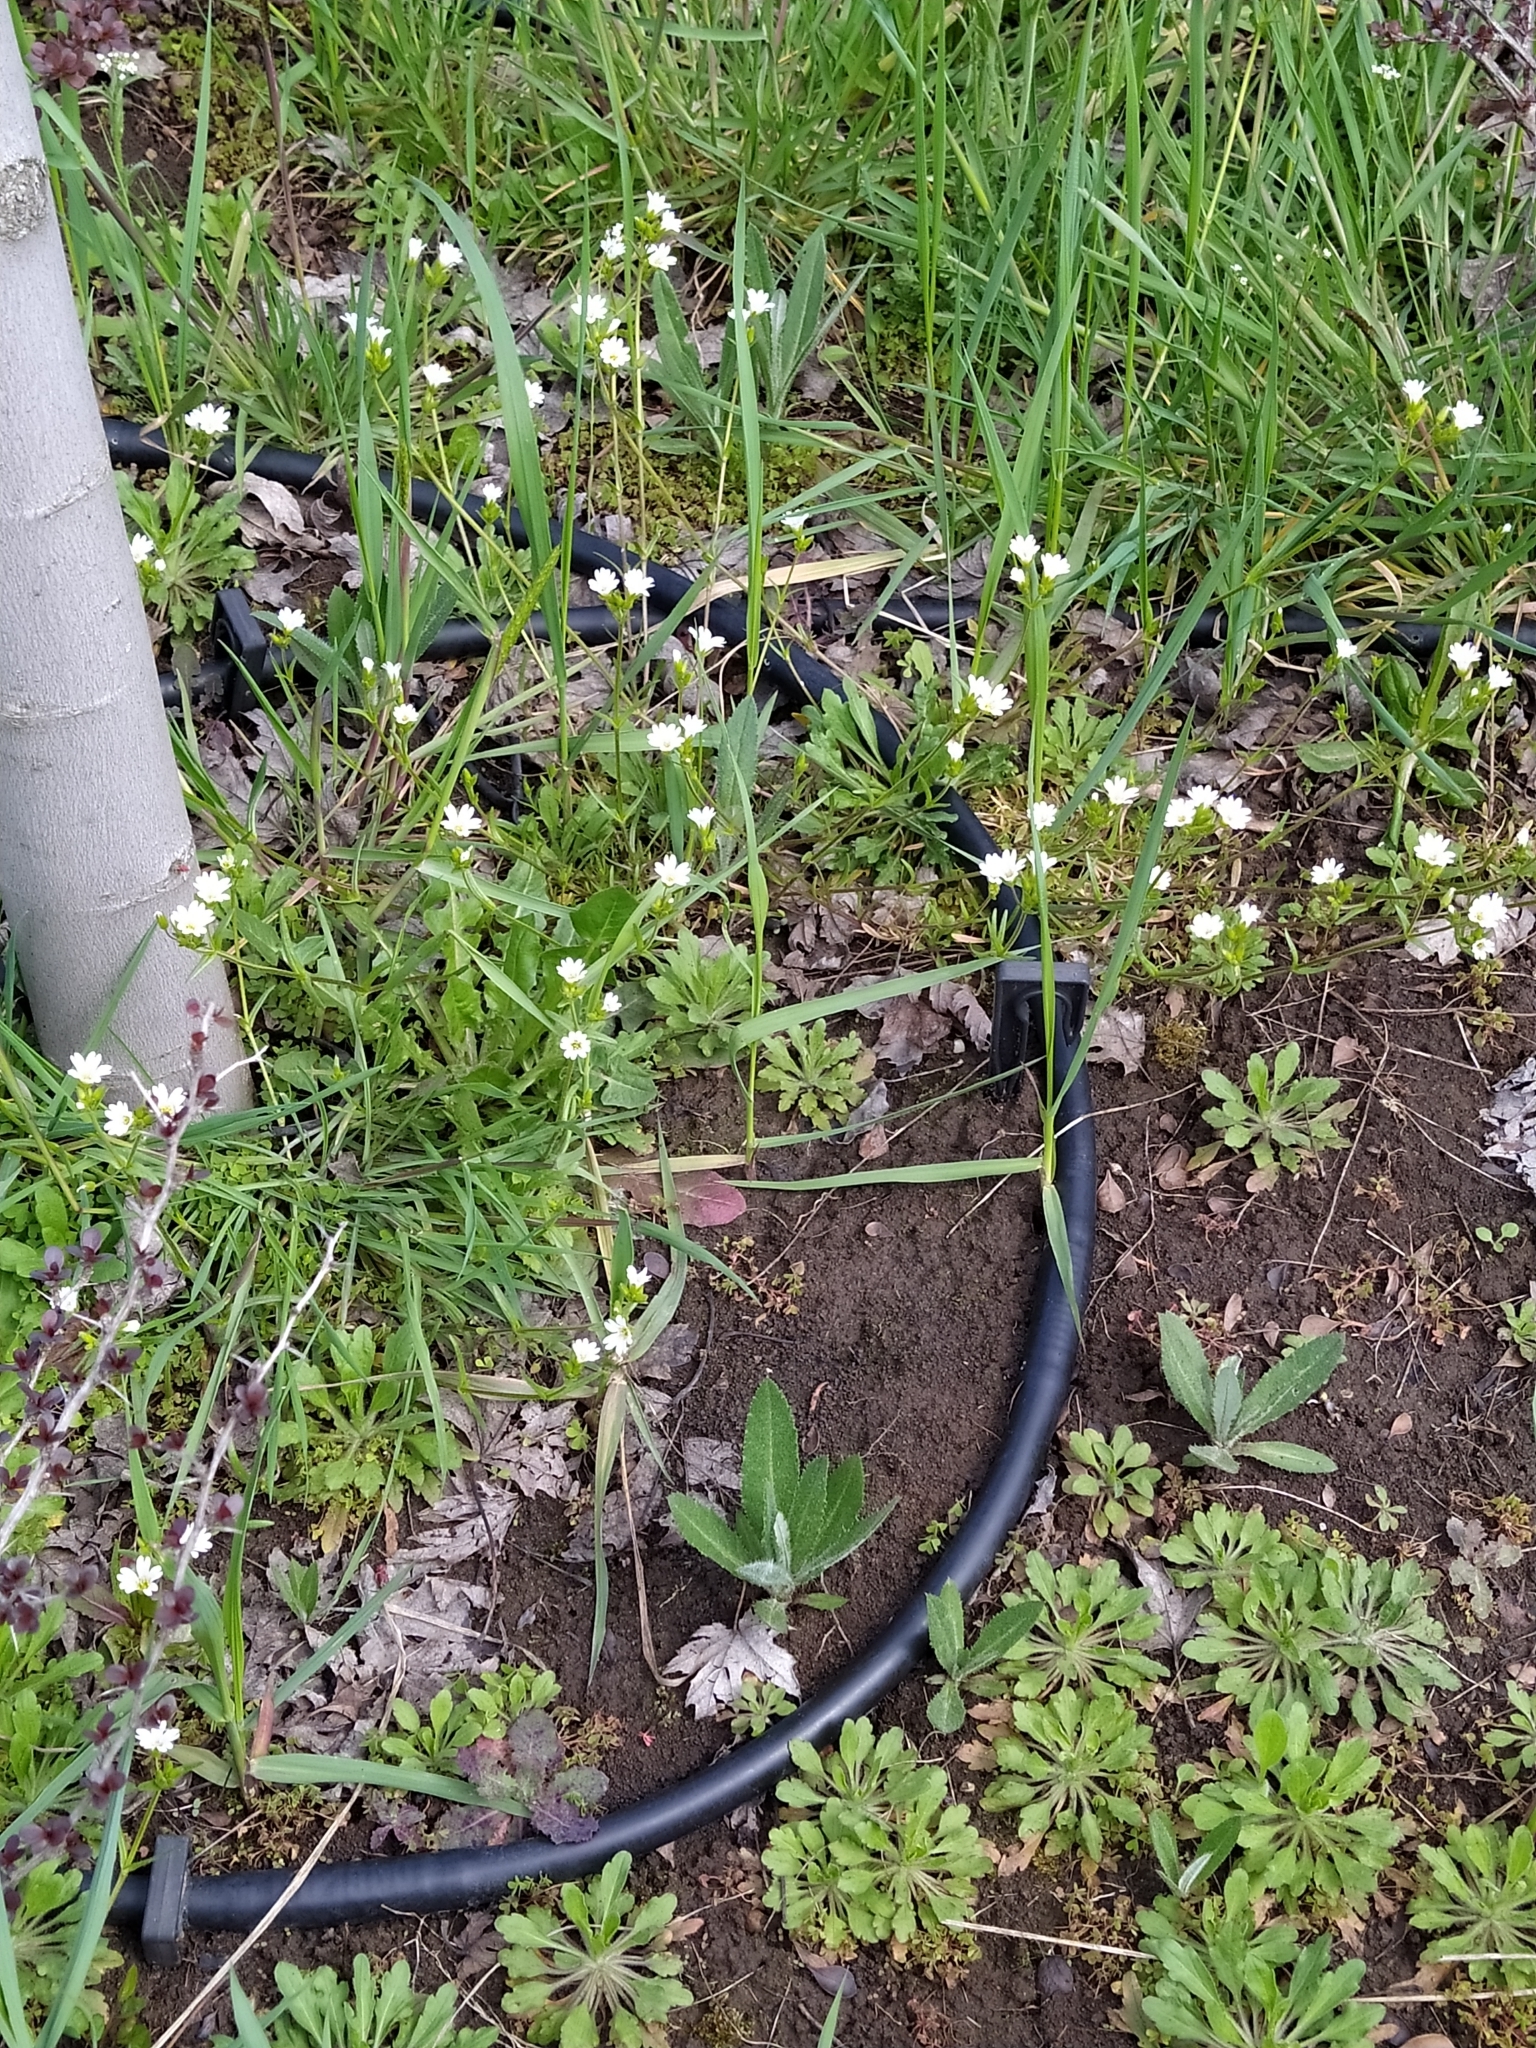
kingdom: Plantae
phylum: Tracheophyta
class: Magnoliopsida
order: Caryophyllales
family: Caryophyllaceae
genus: Dichodon
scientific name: Dichodon viscidum
